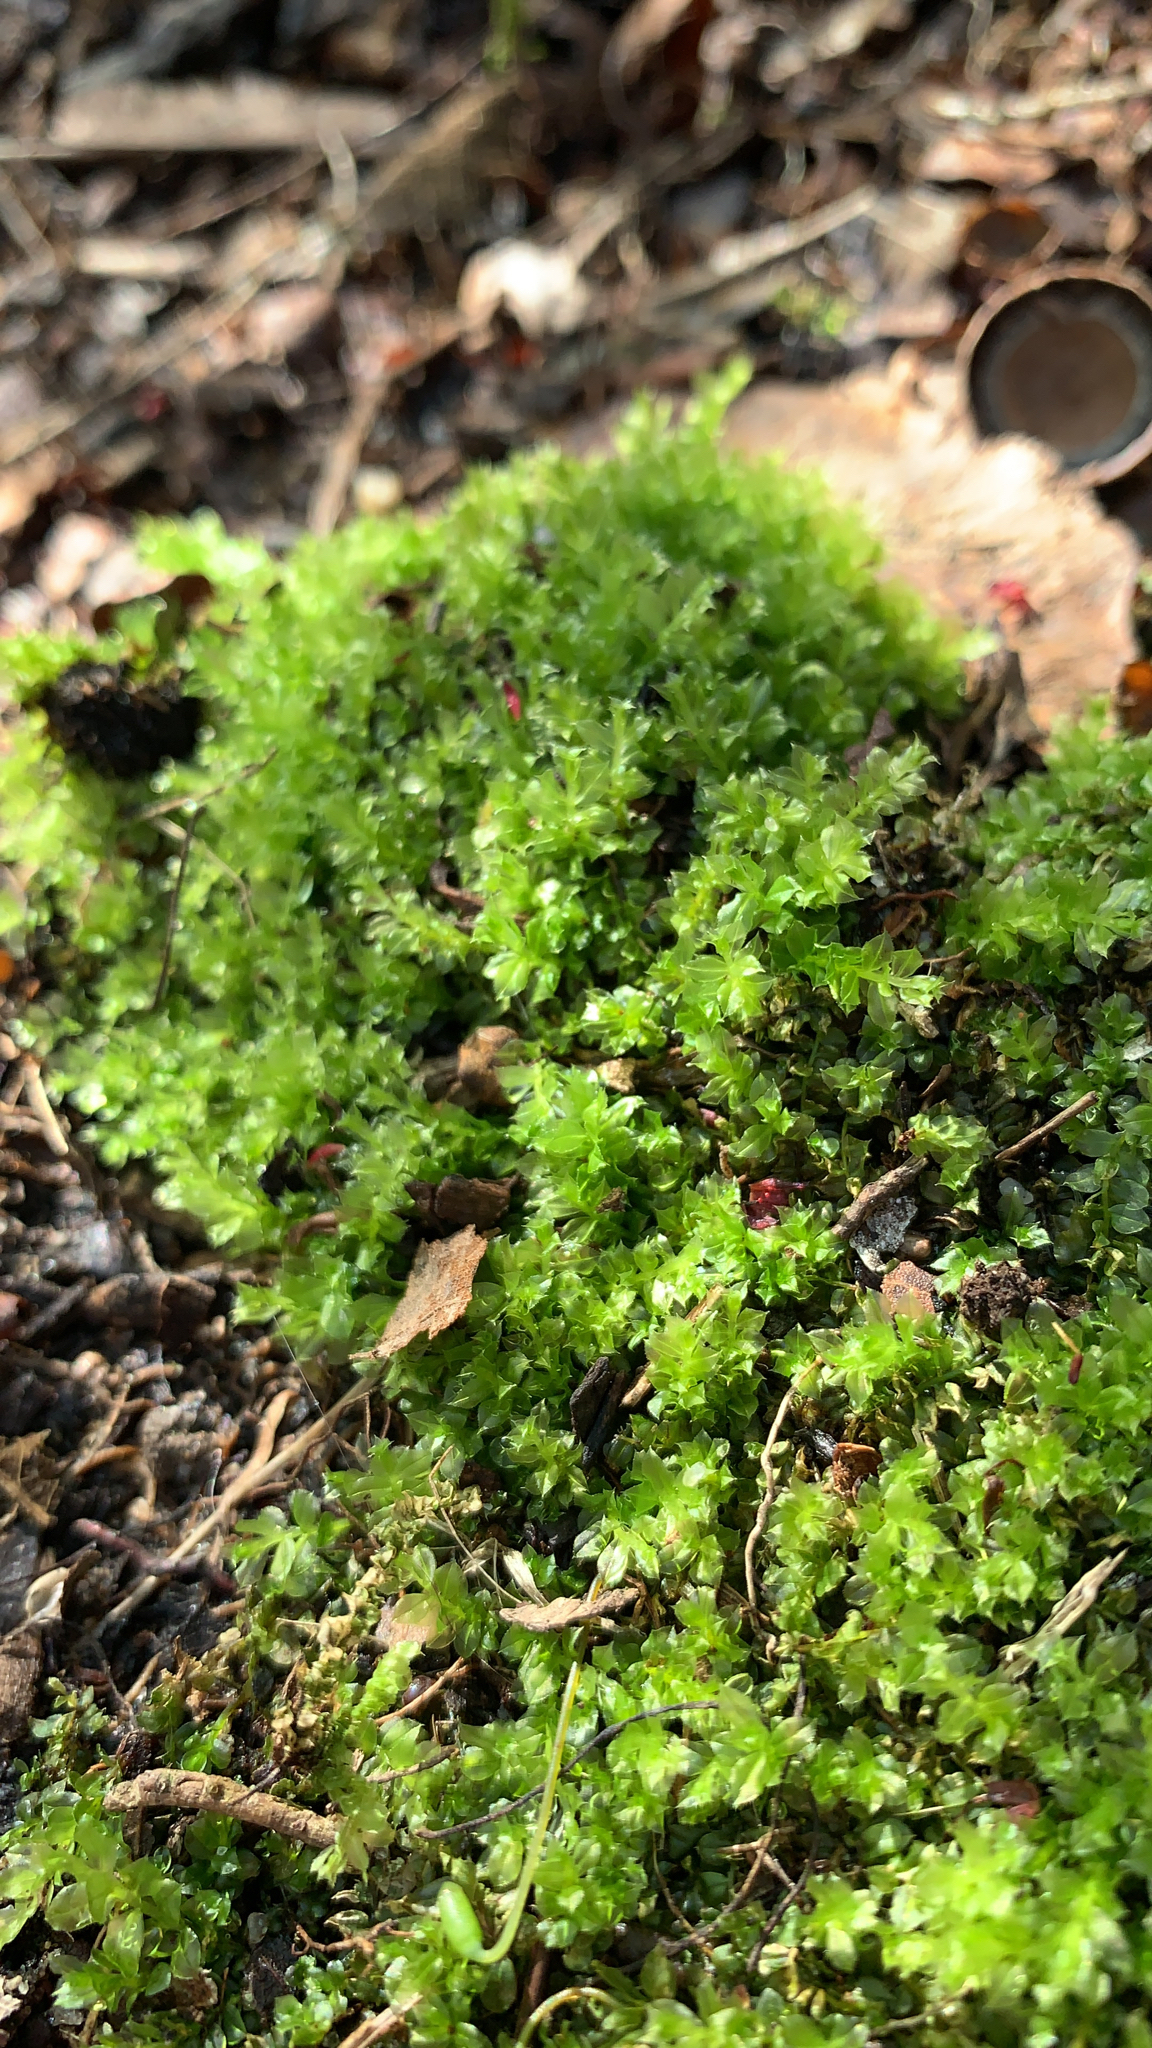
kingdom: Plantae
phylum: Bryophyta
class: Bryopsida
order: Bryales
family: Mniaceae
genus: Plagiomnium
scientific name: Plagiomnium cuspidatum
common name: Woodsy leafy moss
